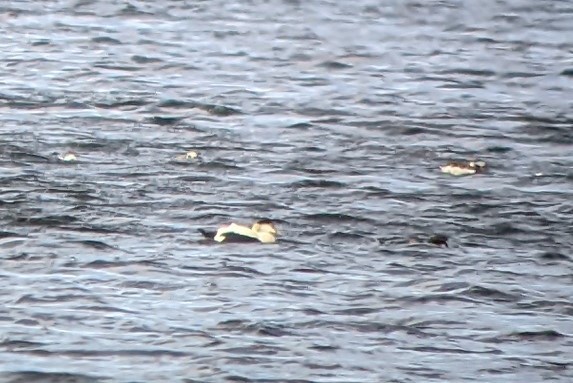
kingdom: Animalia
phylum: Chordata
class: Aves
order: Anseriformes
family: Anatidae
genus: Somateria
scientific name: Somateria mollissima
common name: Common eider
